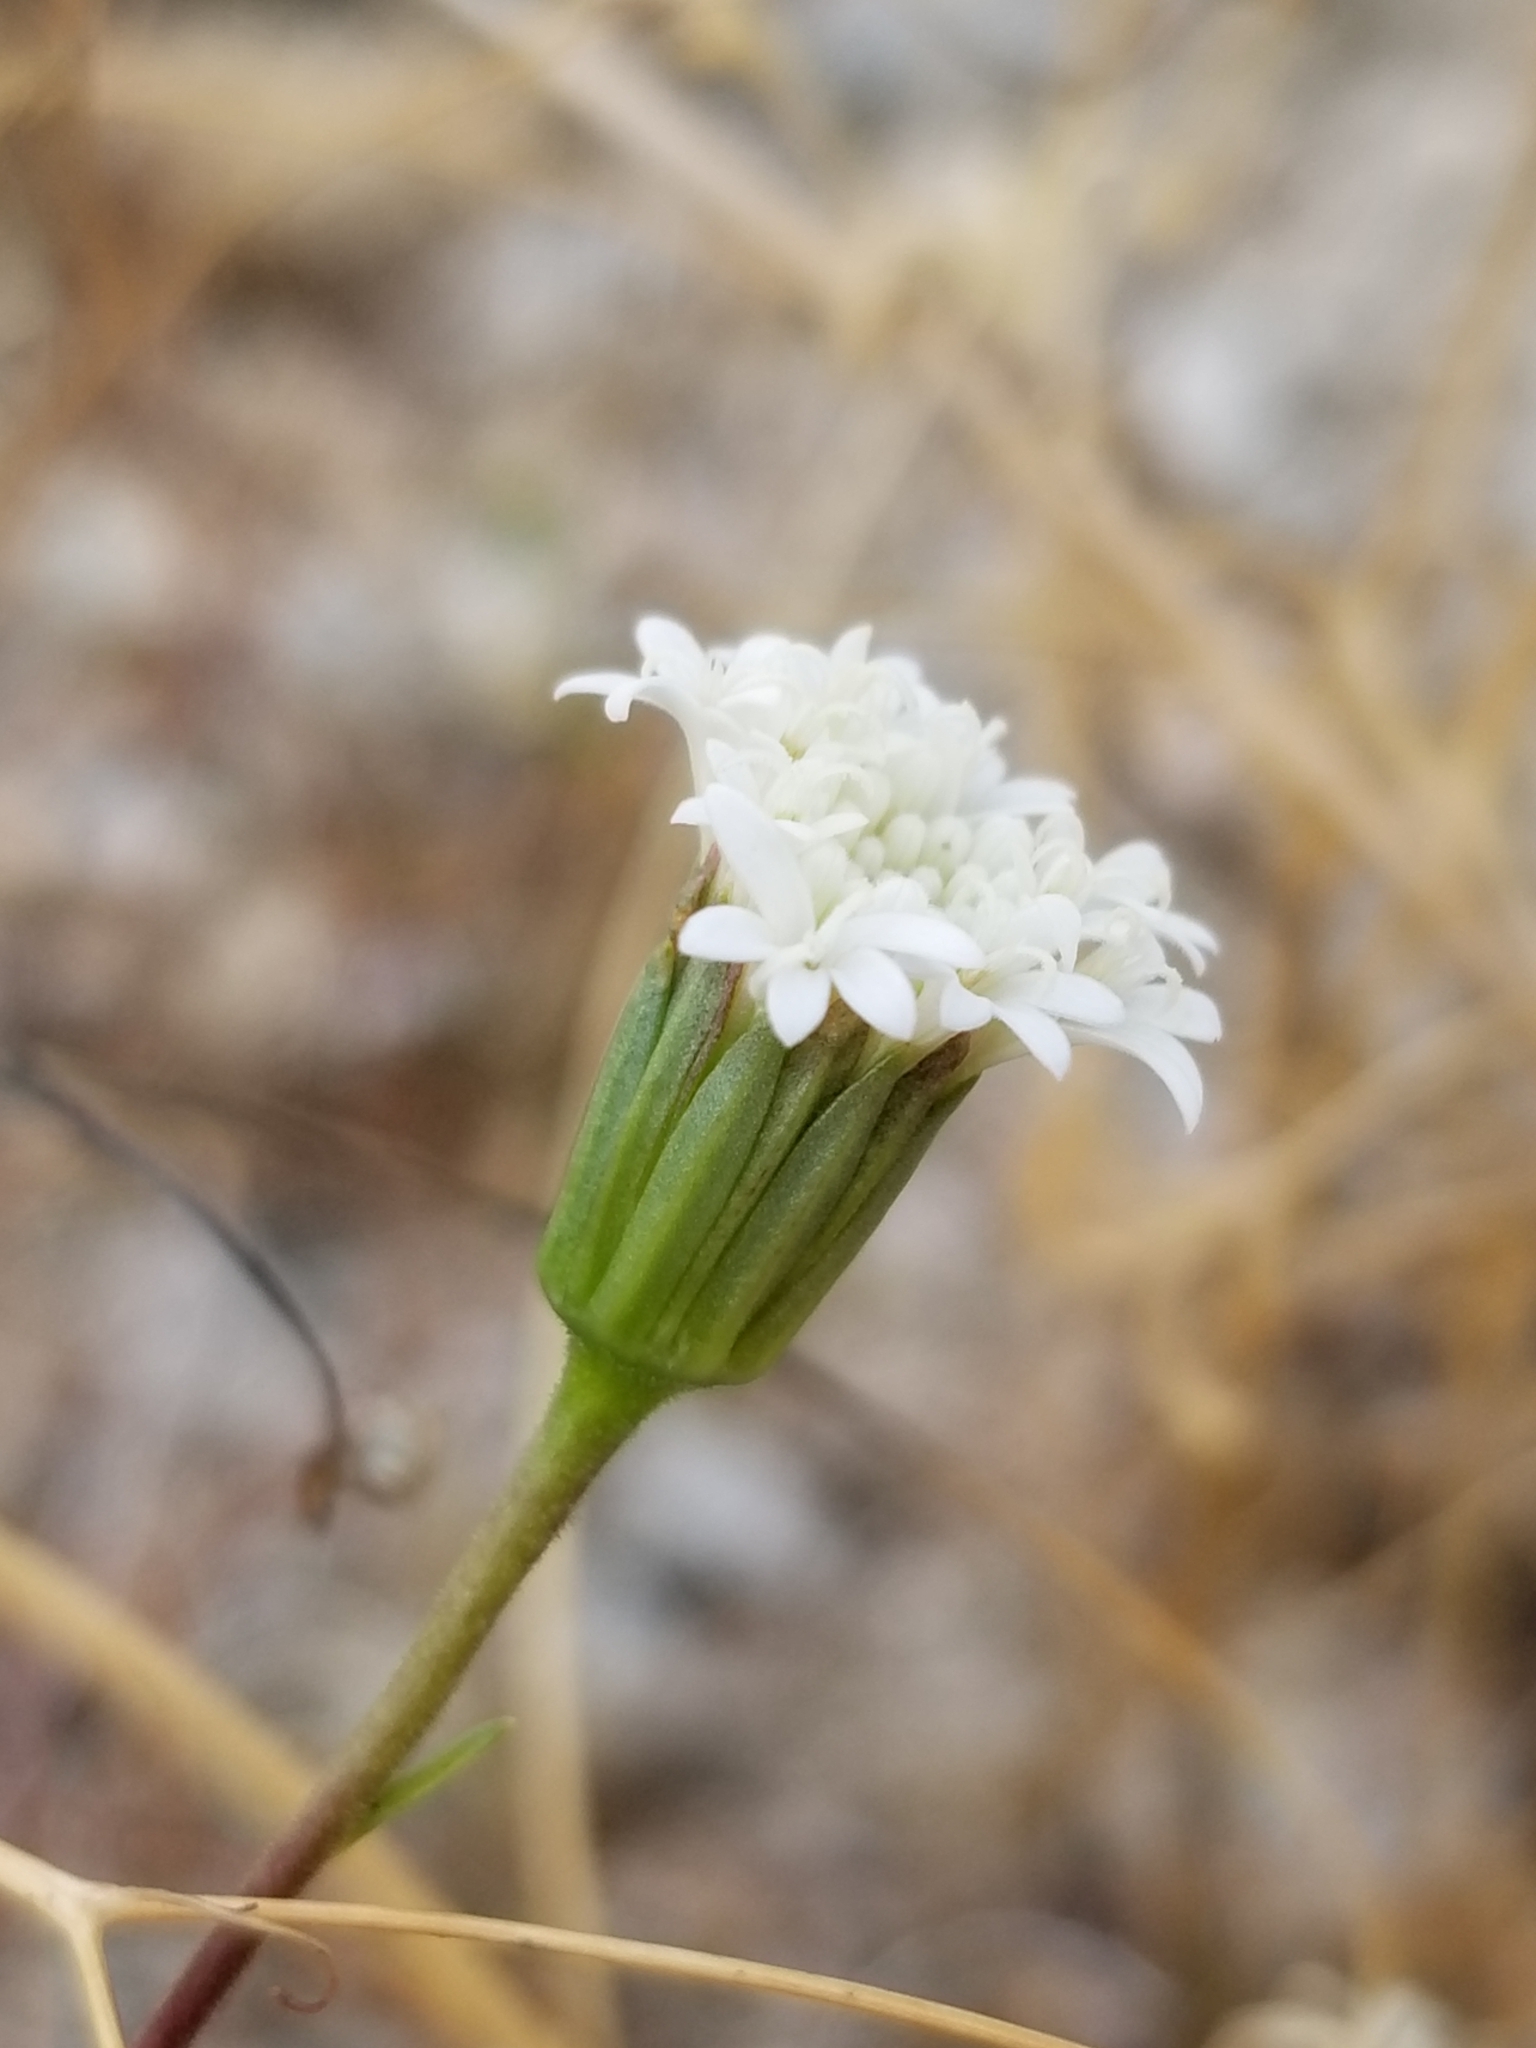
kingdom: Plantae
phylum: Tracheophyta
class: Magnoliopsida
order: Asterales
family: Asteraceae
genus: Chaenactis
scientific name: Chaenactis fremontii
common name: Fremont pincushion
